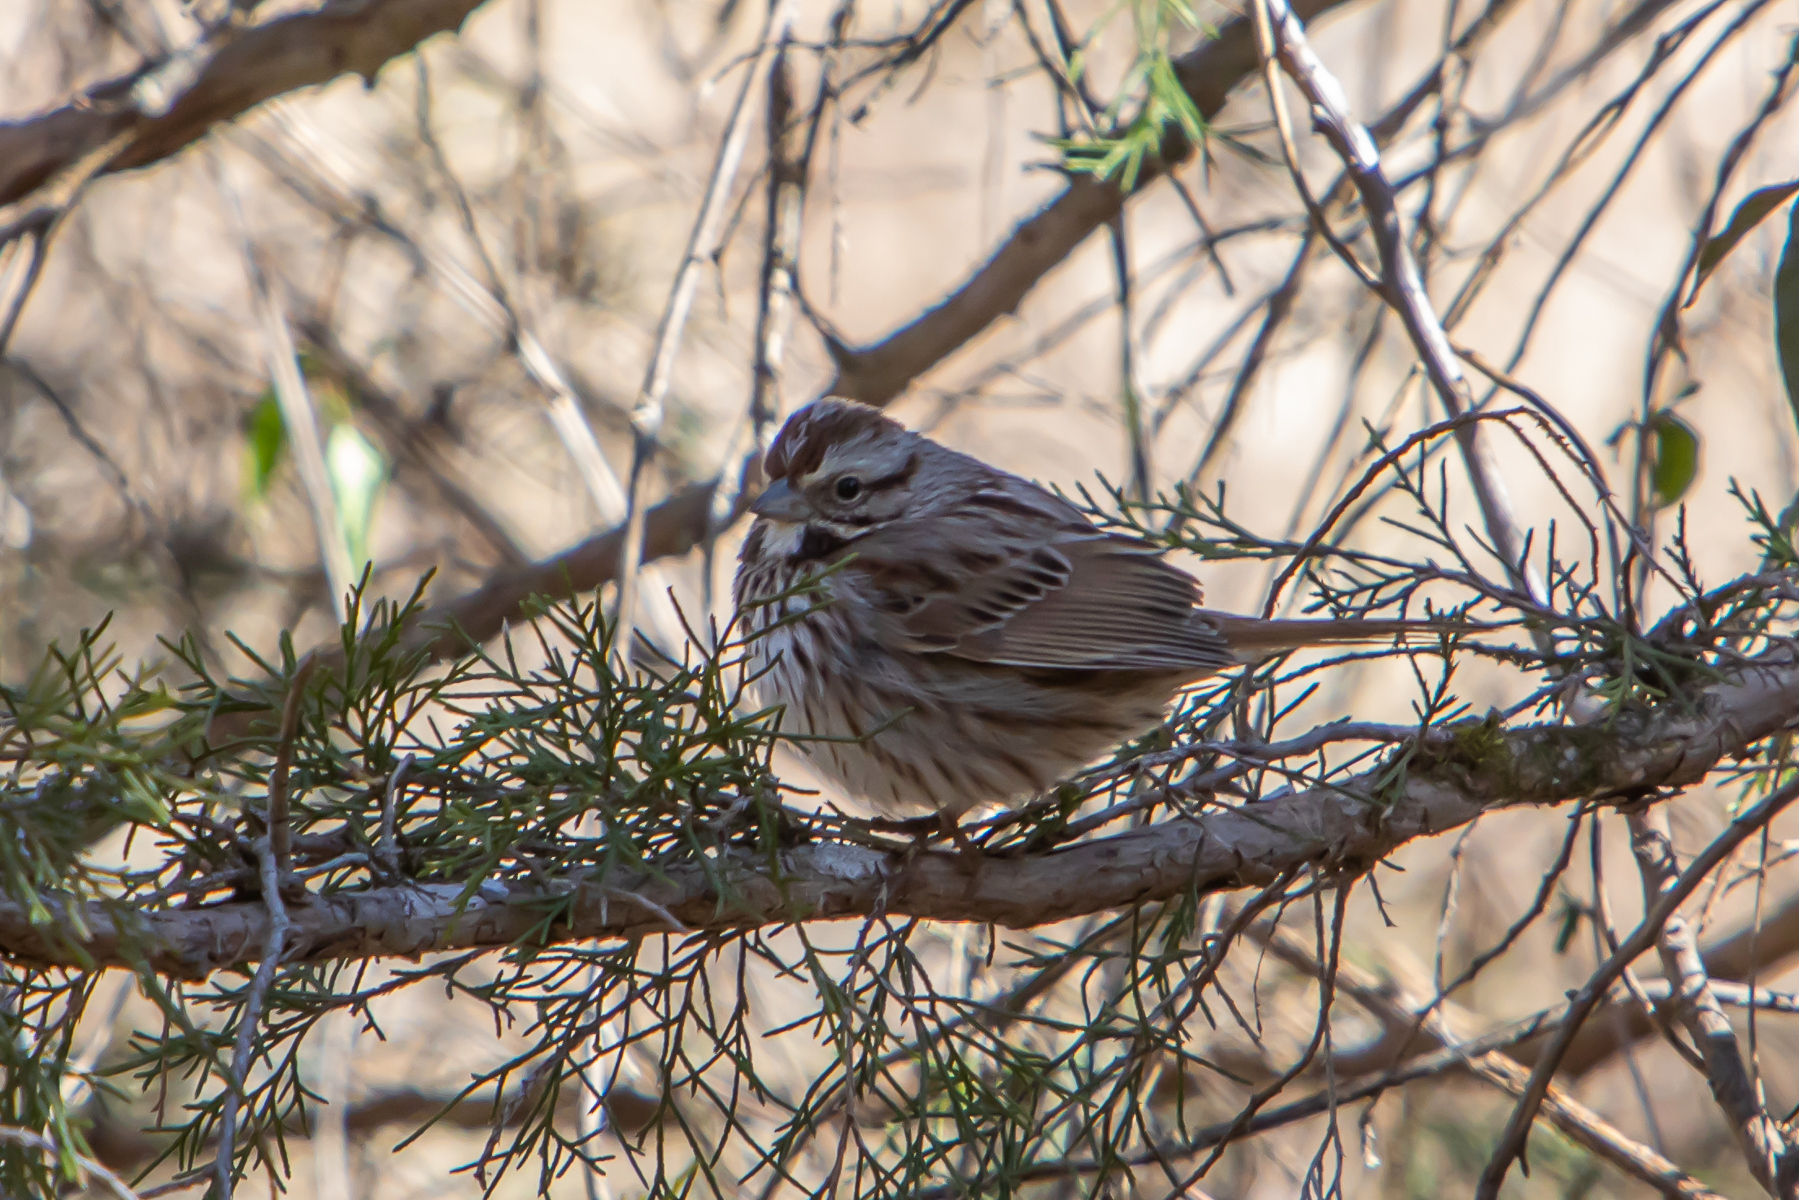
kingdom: Animalia
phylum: Chordata
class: Aves
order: Passeriformes
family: Passerellidae
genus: Melospiza
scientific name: Melospiza melodia
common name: Song sparrow
